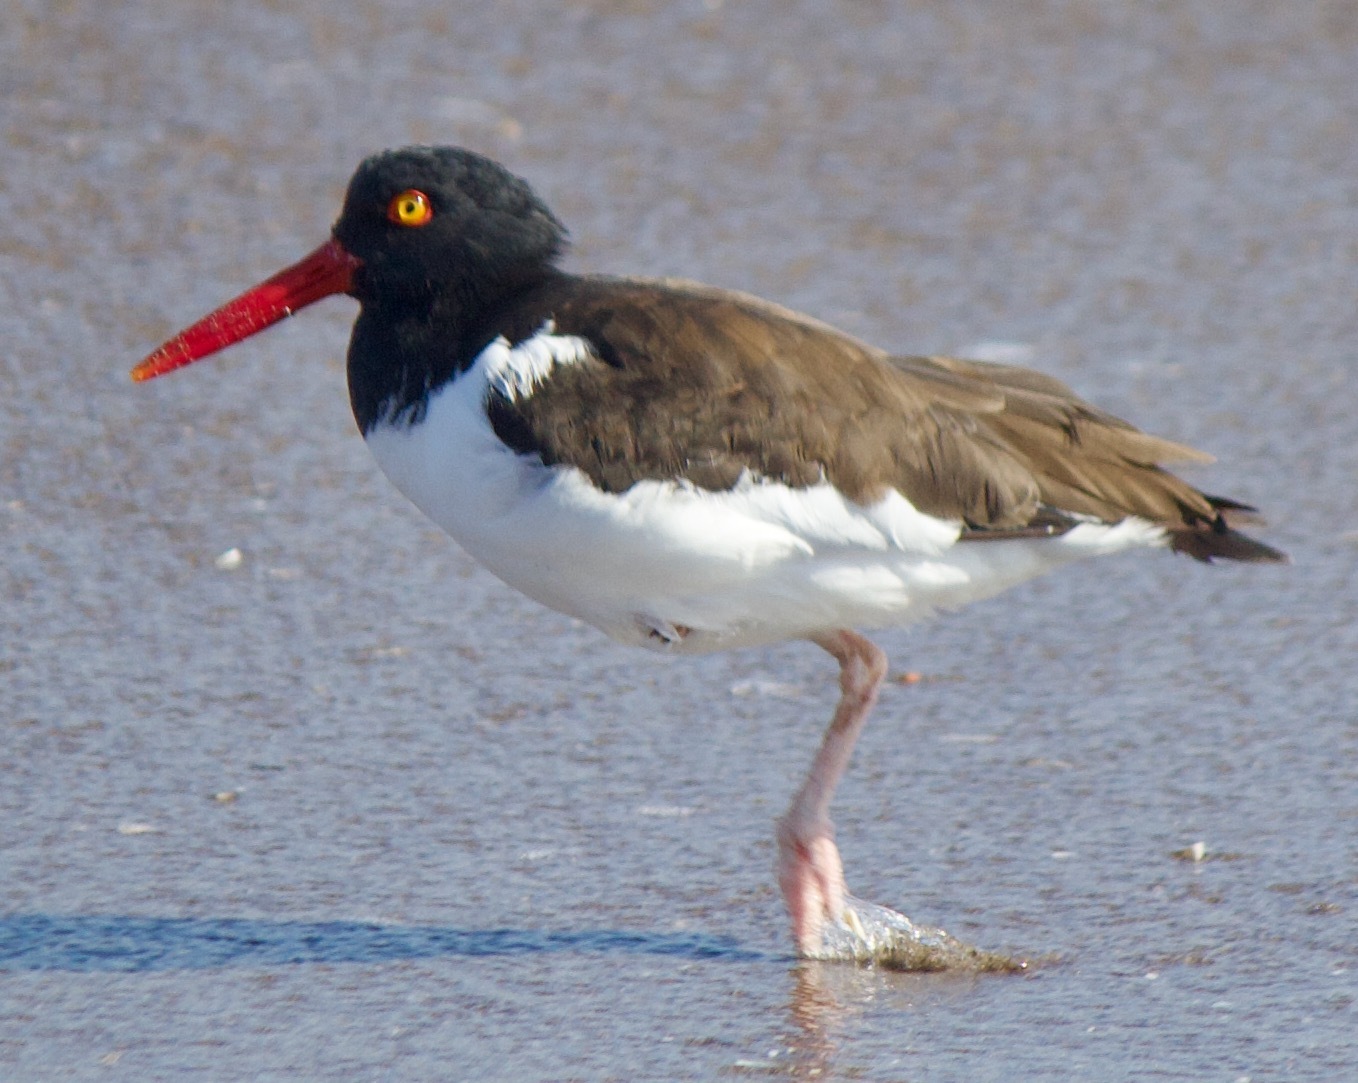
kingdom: Animalia
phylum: Chordata
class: Aves
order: Charadriiformes
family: Haematopodidae
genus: Haematopus
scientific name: Haematopus palliatus
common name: American oystercatcher
